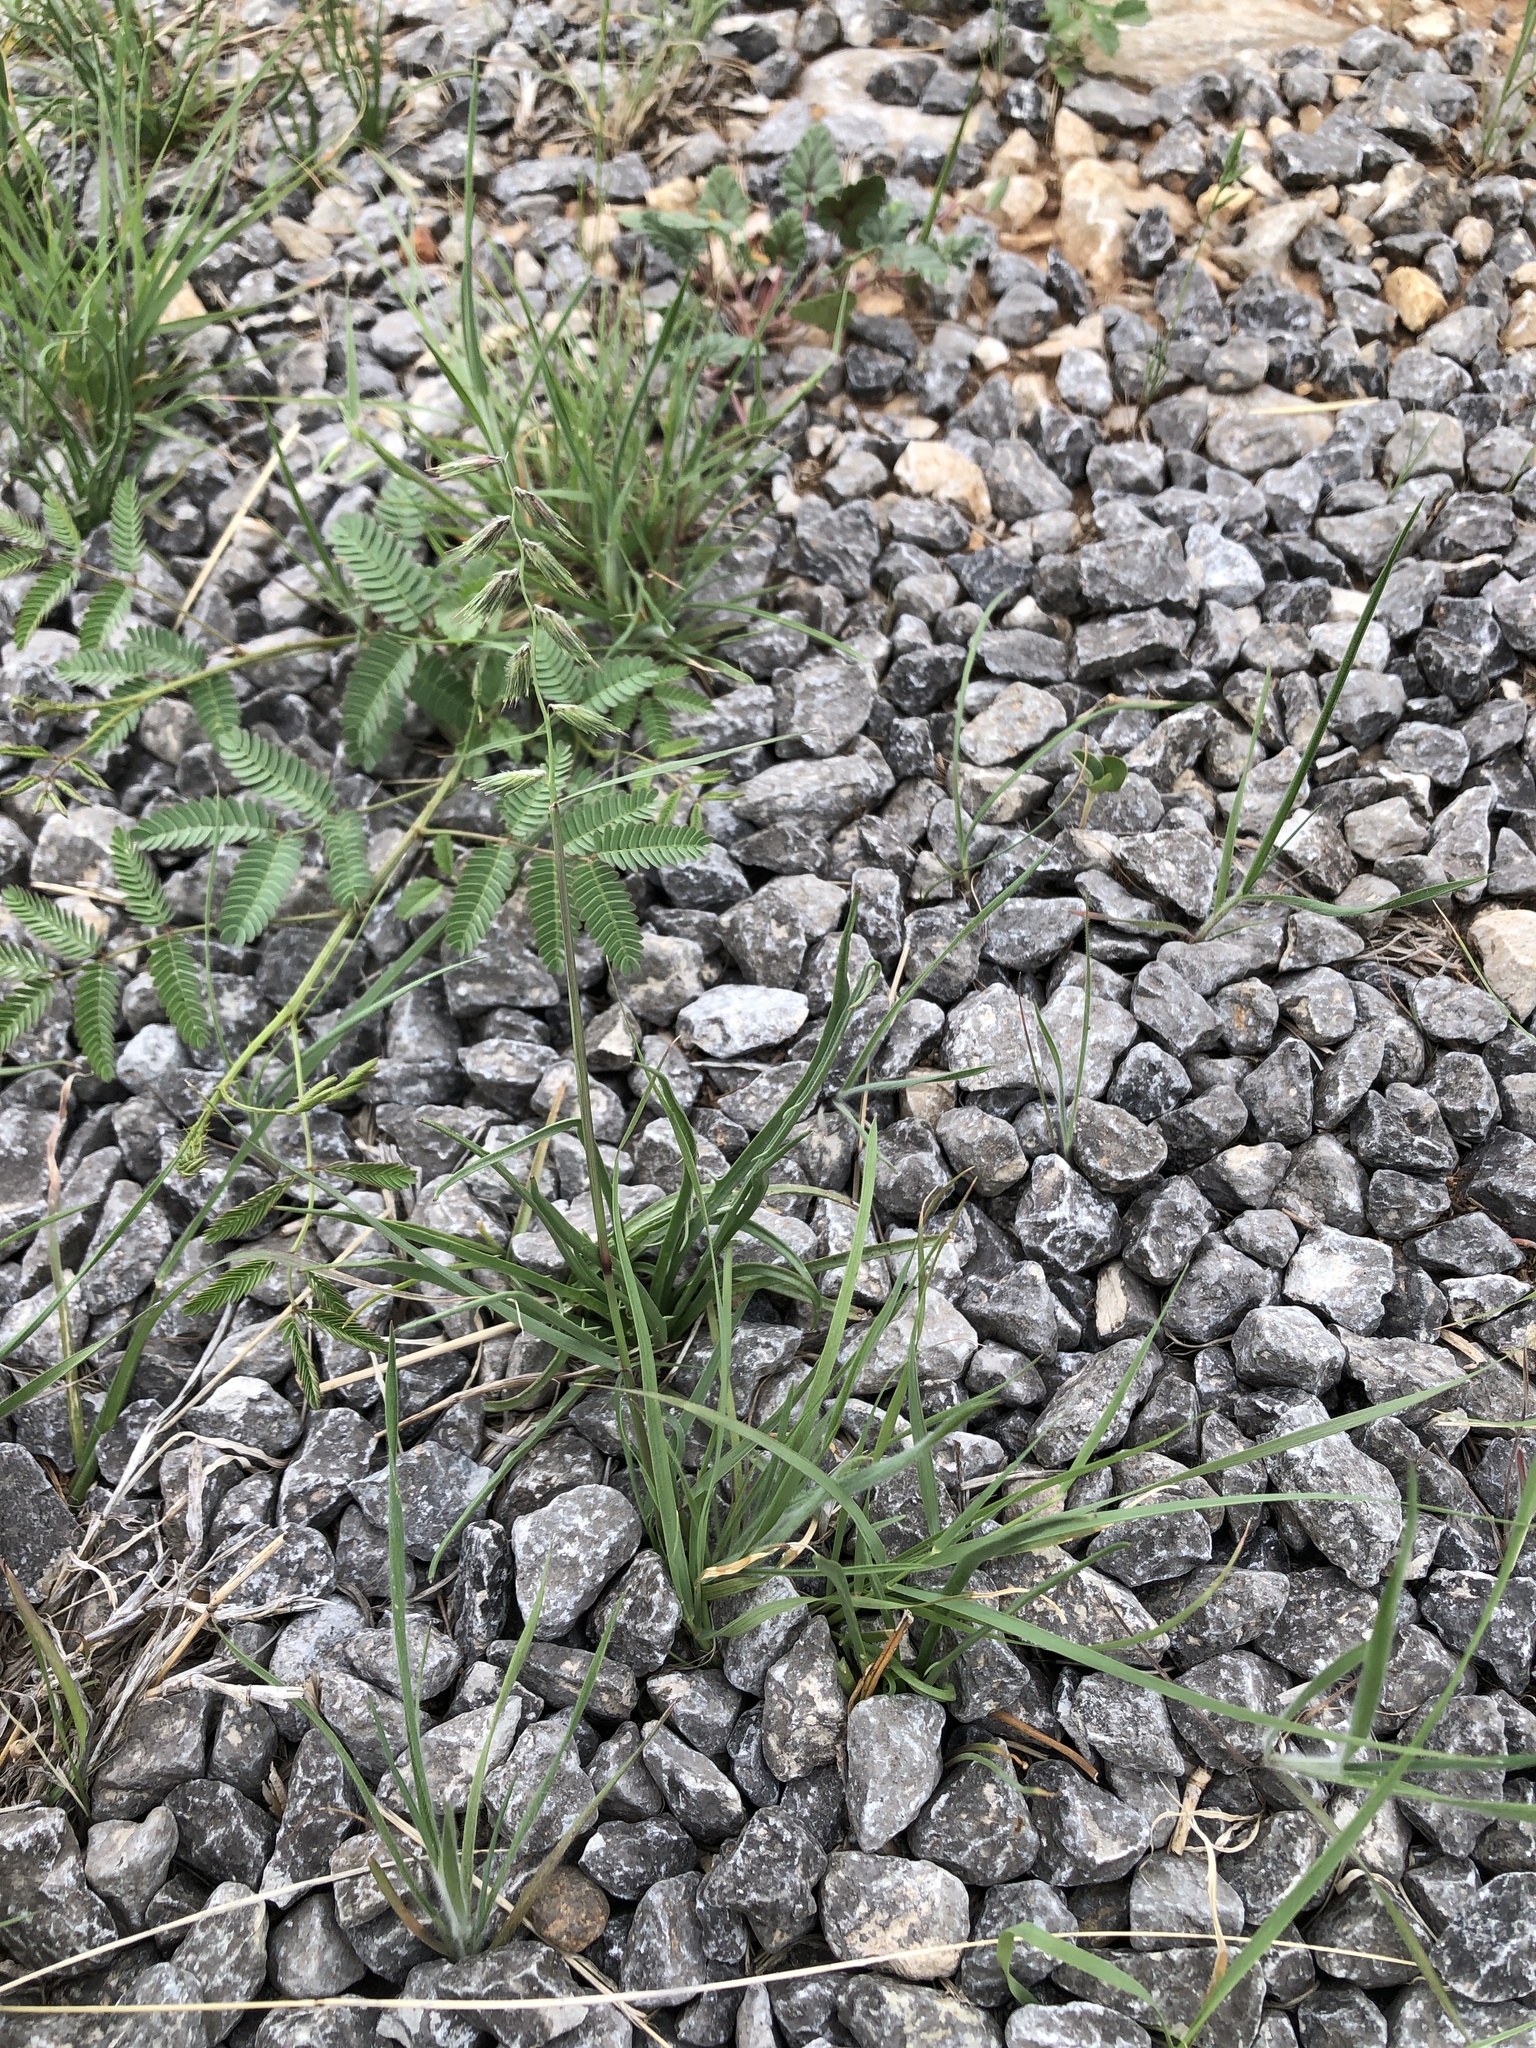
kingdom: Plantae
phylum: Tracheophyta
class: Liliopsida
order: Poales
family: Poaceae
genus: Bouteloua
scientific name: Bouteloua rigidiseta
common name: Texas grama
